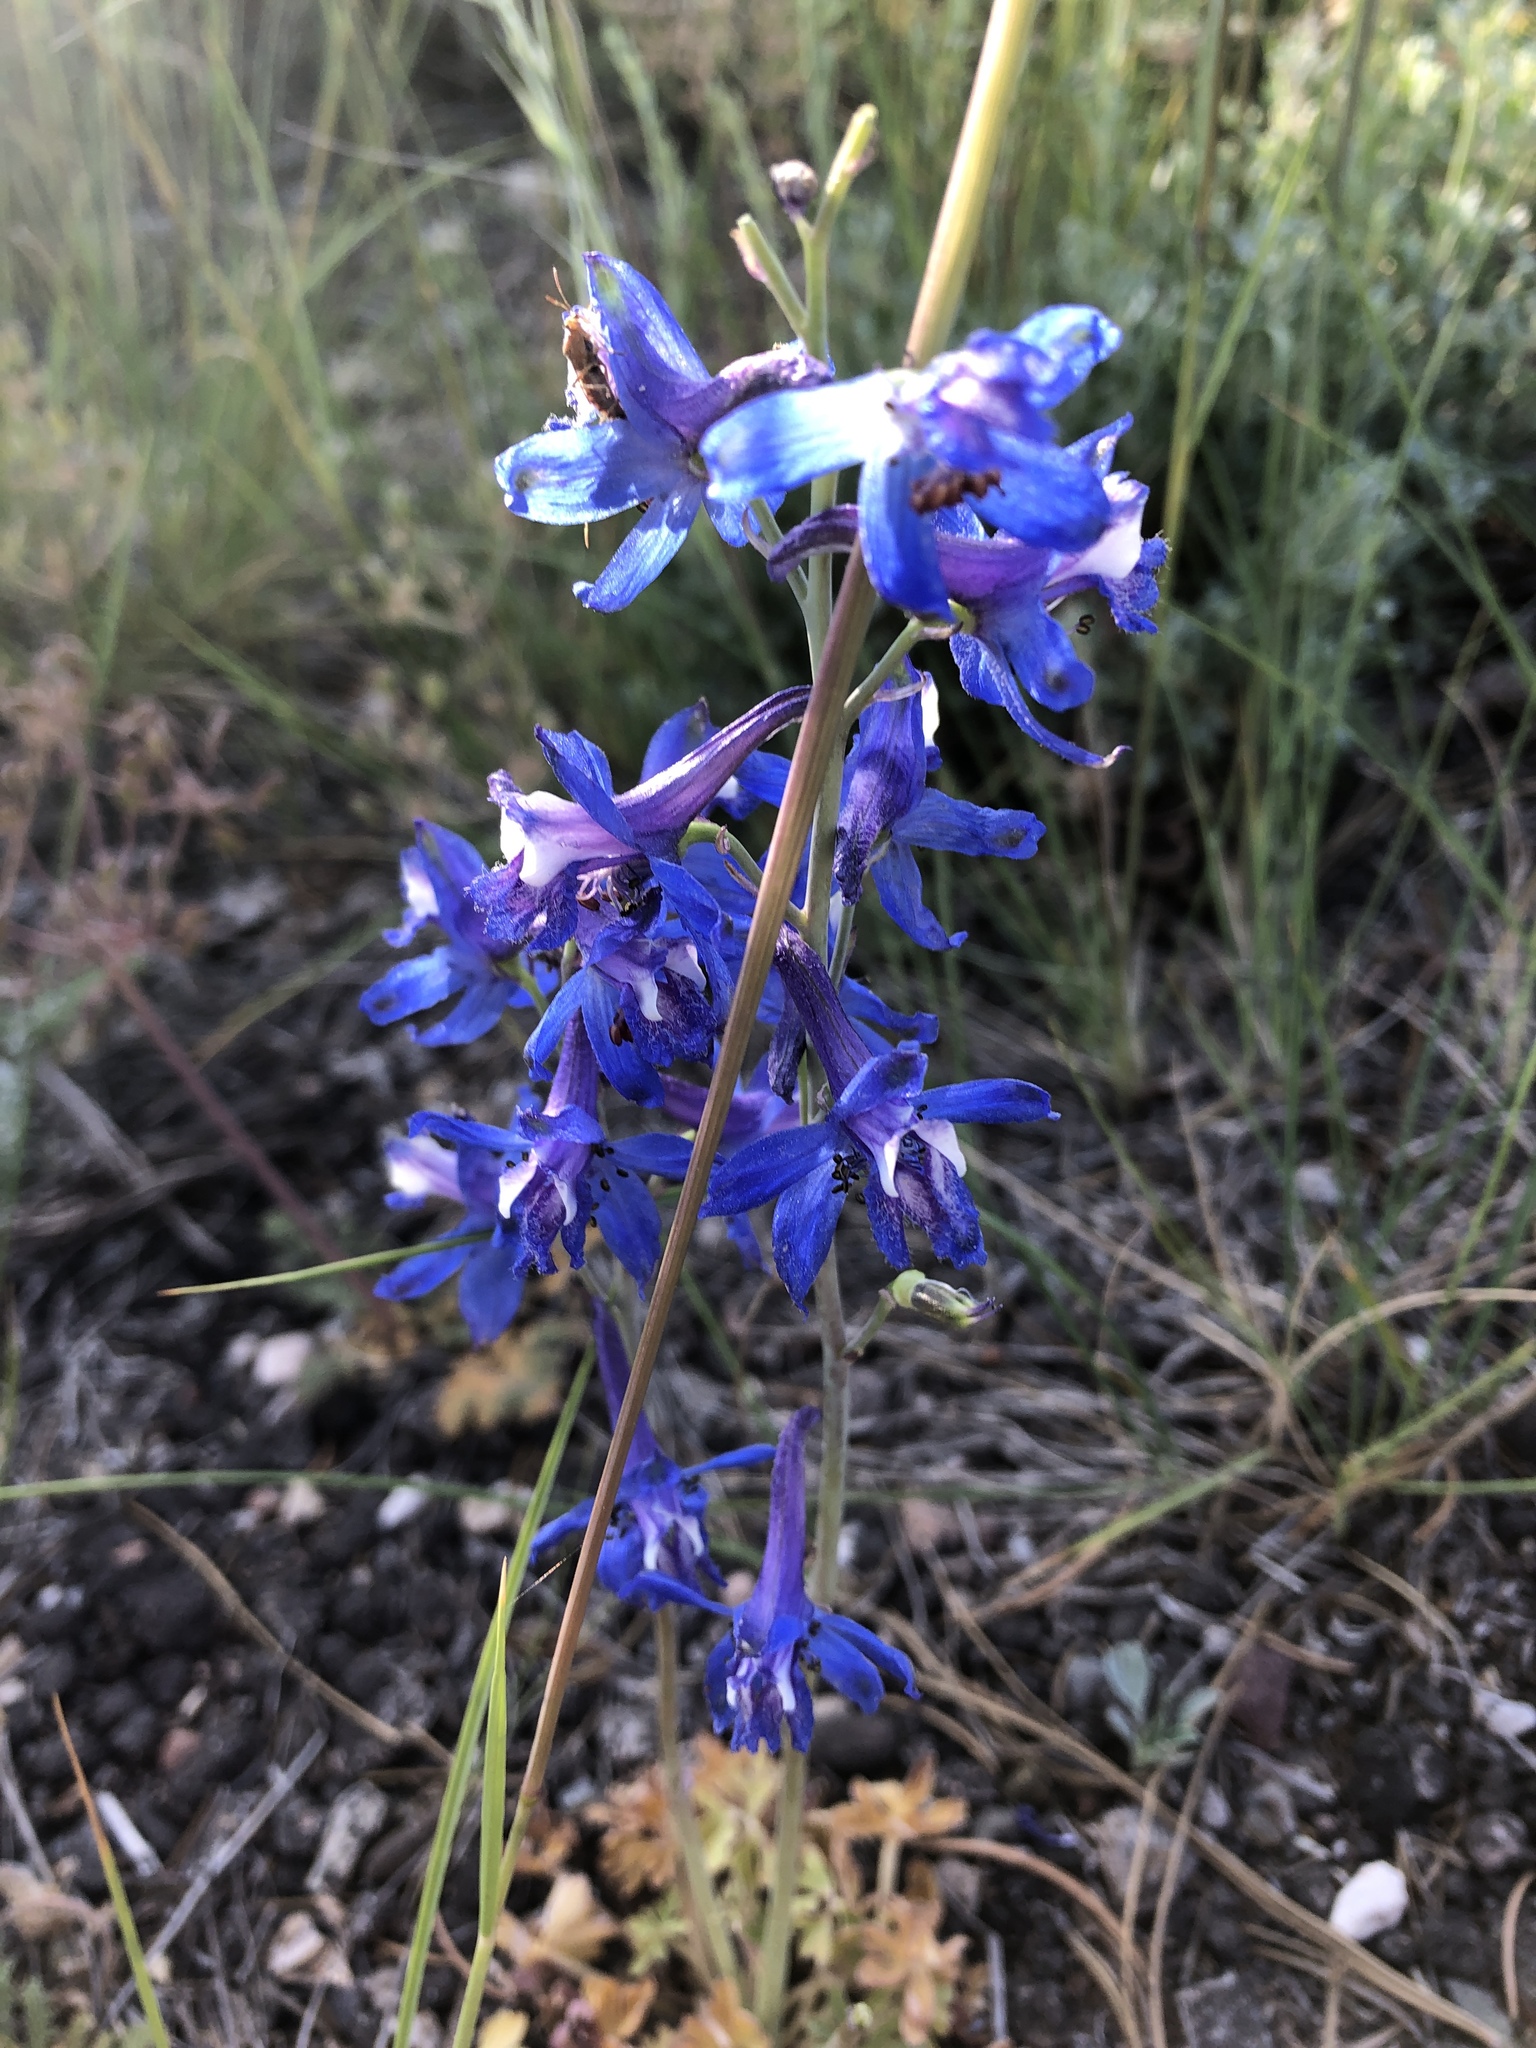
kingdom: Plantae
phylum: Tracheophyta
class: Magnoliopsida
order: Ranunculales
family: Ranunculaceae
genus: Delphinium
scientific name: Delphinium scaposum
